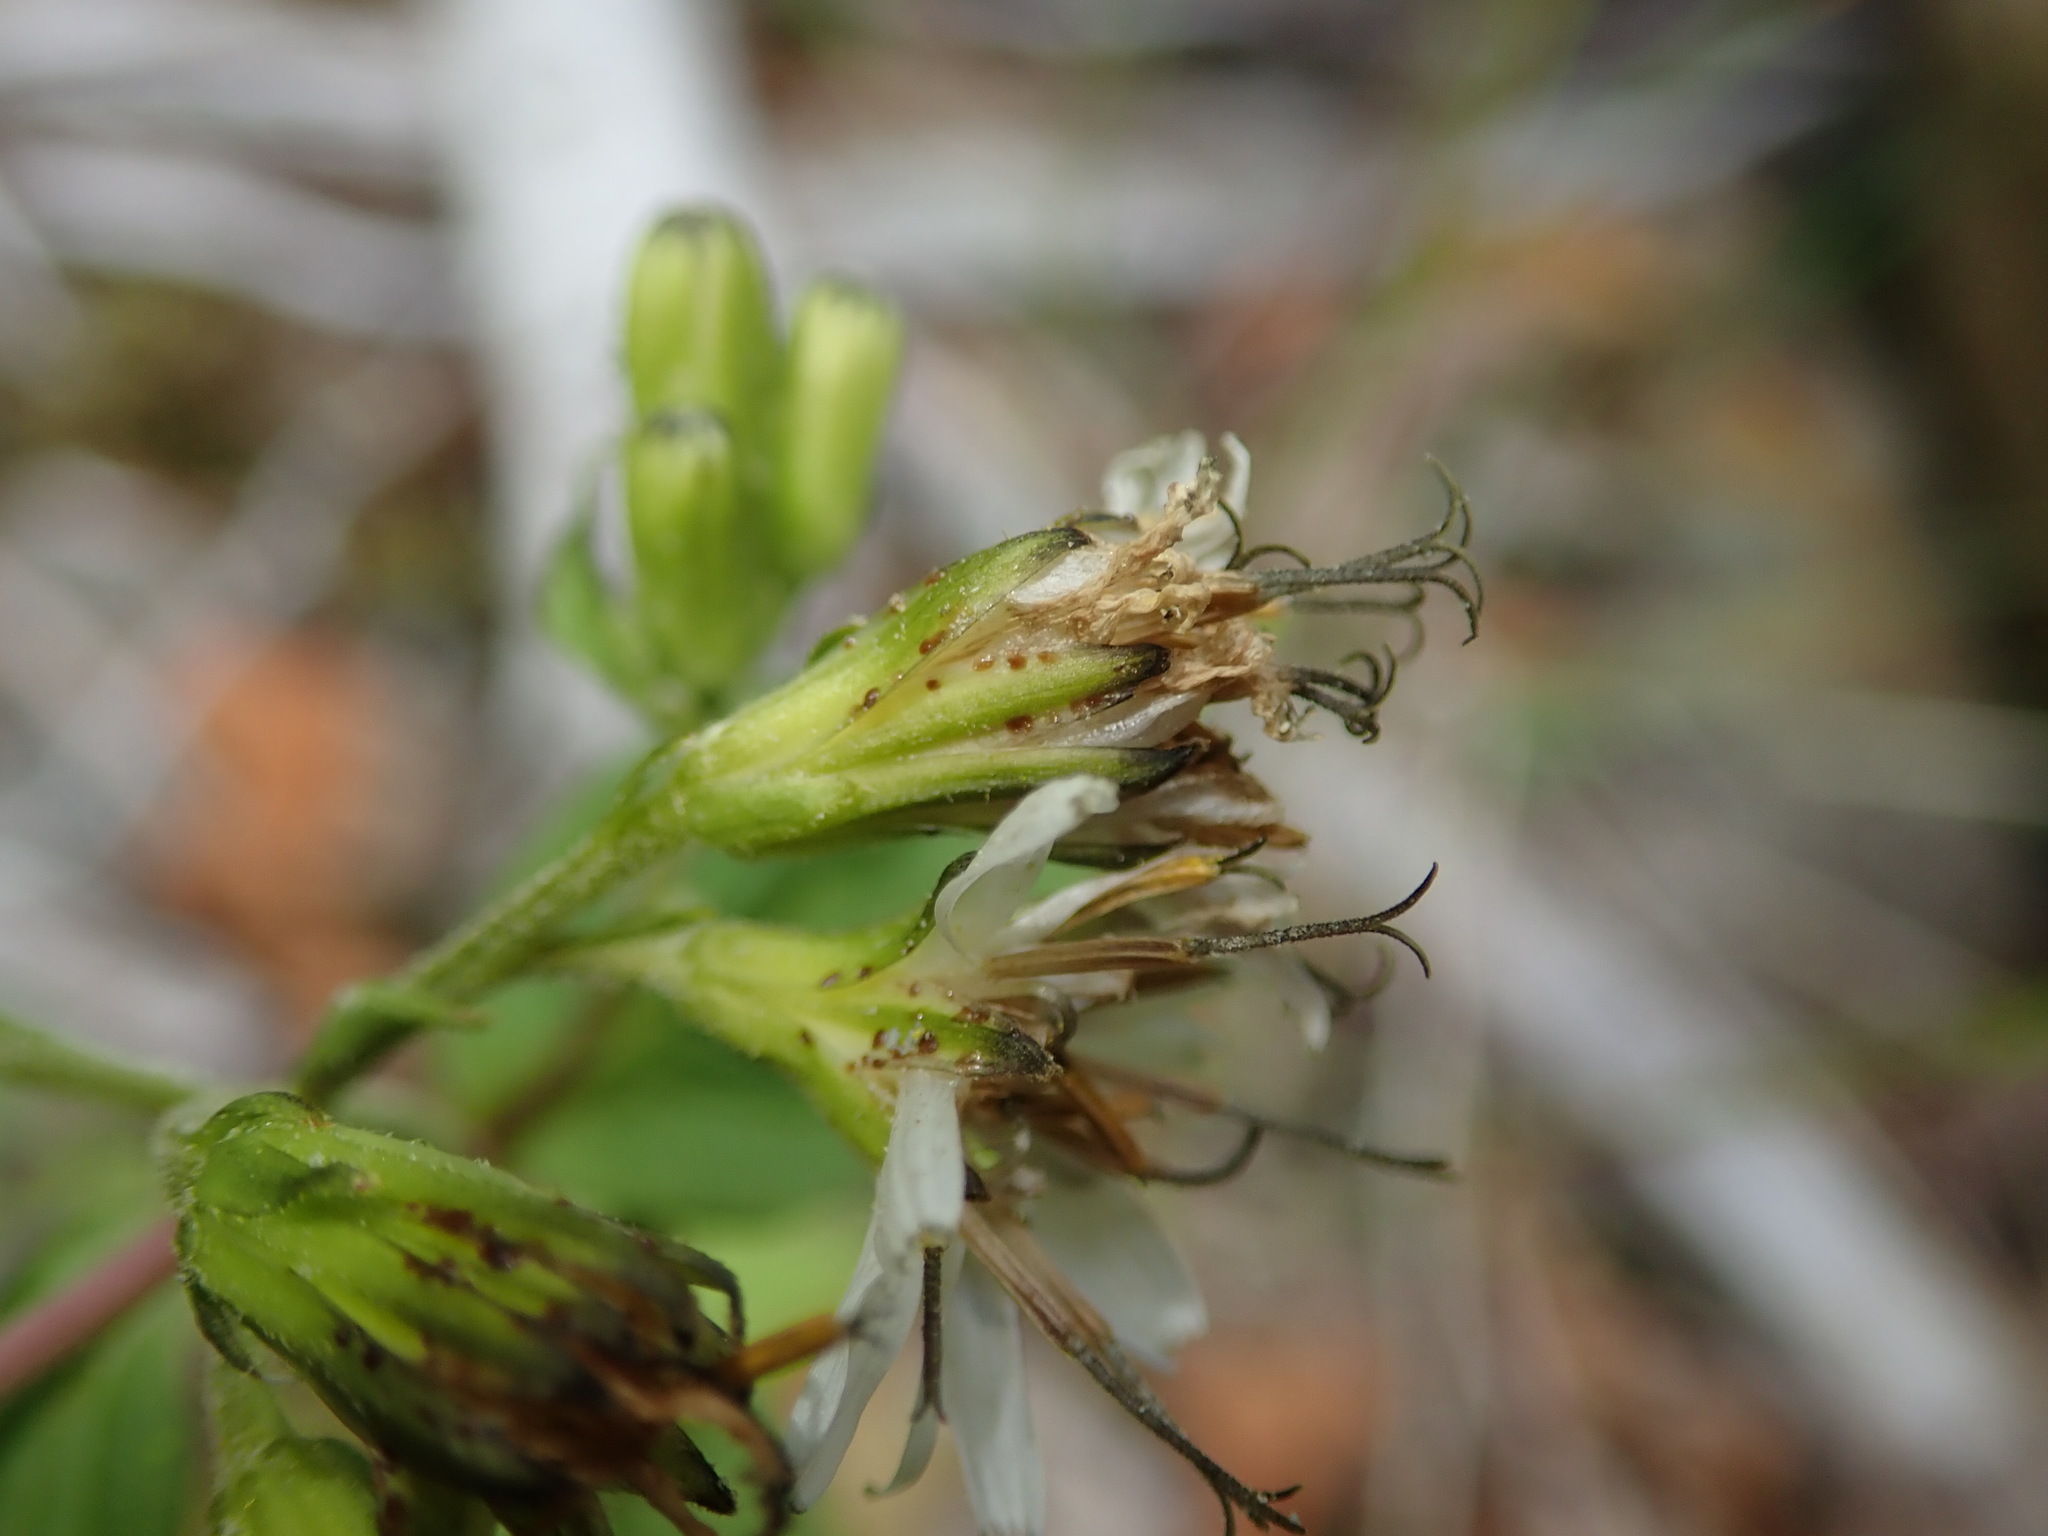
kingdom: Plantae
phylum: Tracheophyta
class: Magnoliopsida
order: Asterales
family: Asteraceae
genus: Nabalus
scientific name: Nabalus hastatus
